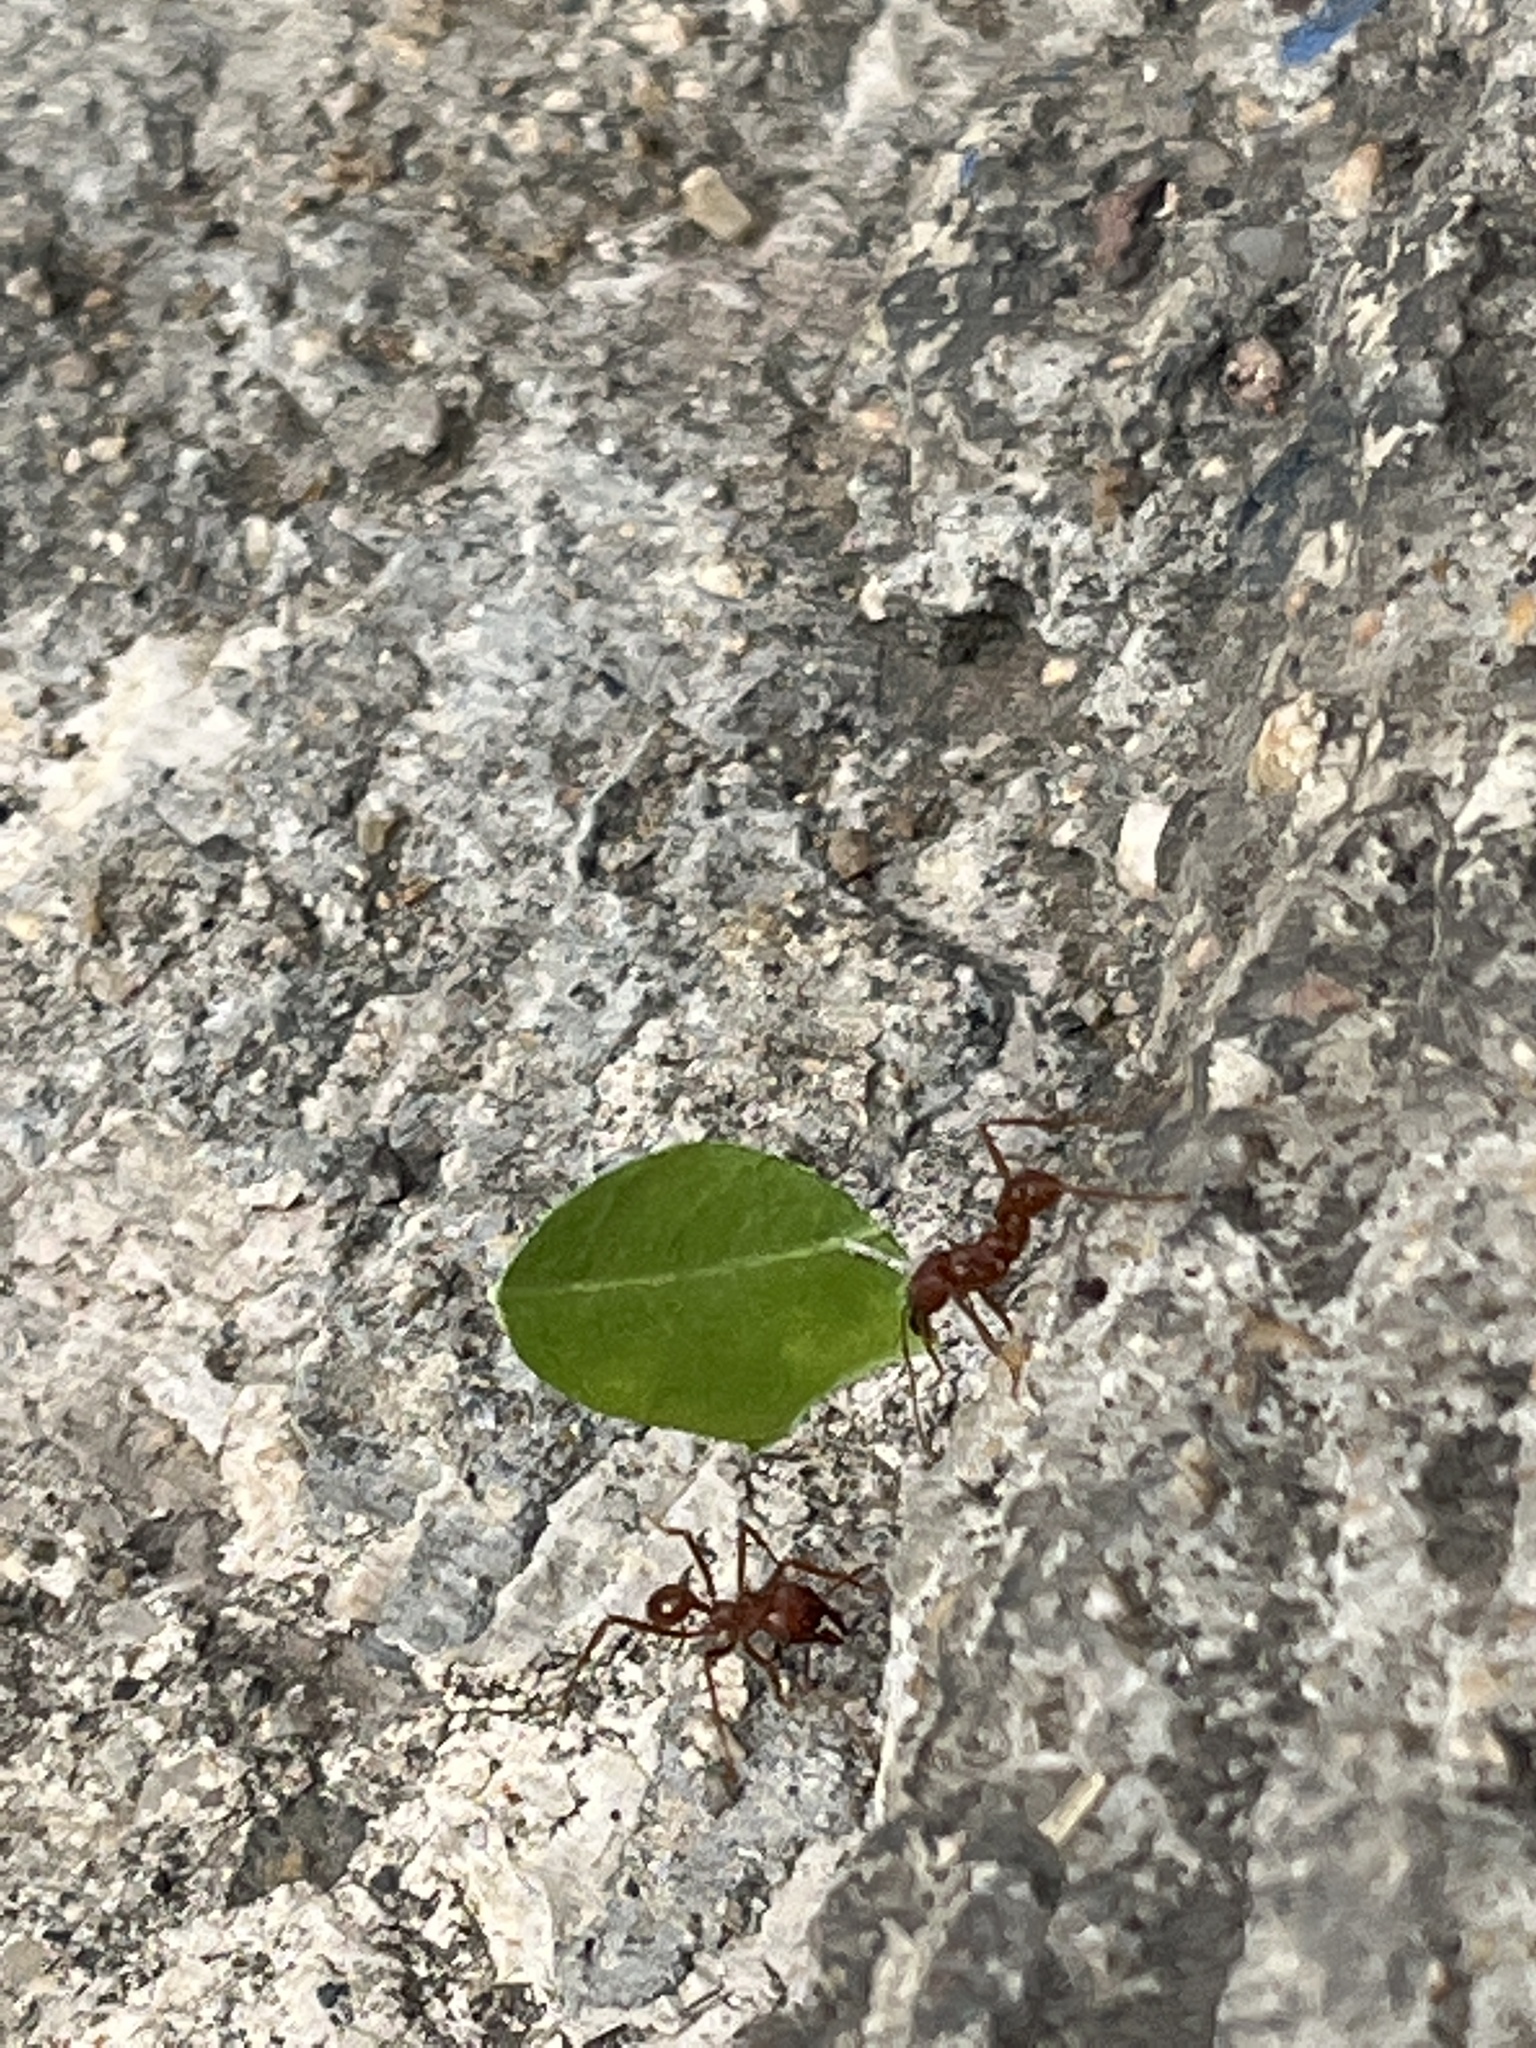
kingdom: Animalia
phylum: Arthropoda
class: Insecta
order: Hymenoptera
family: Formicidae
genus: Atta
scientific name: Atta mexicana
